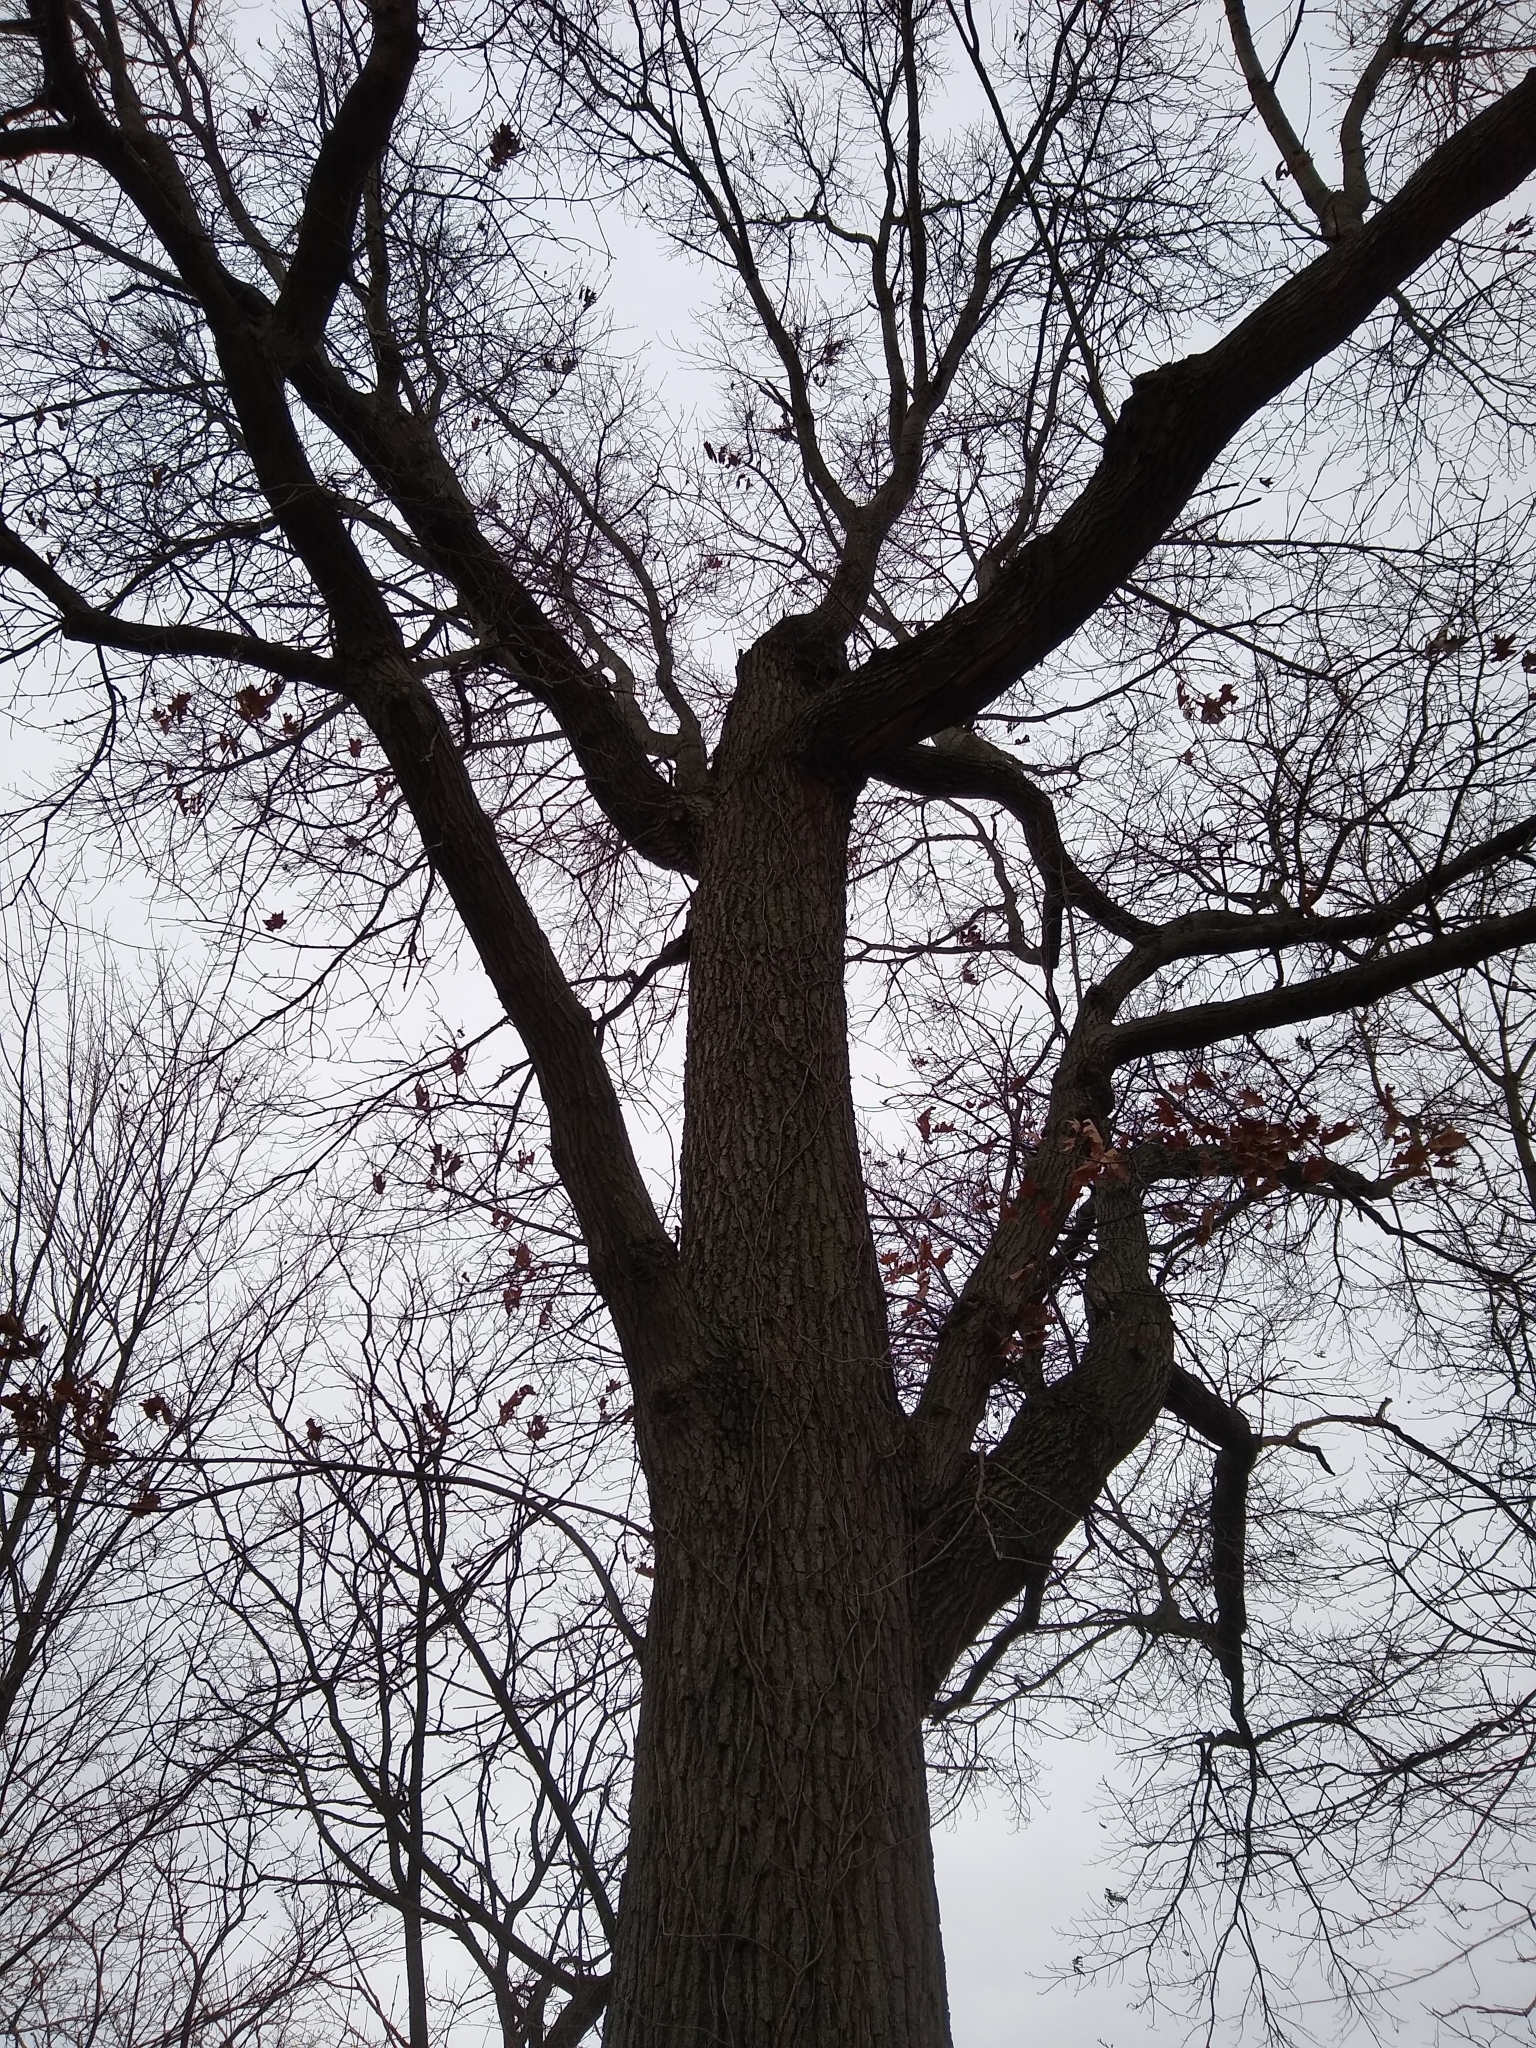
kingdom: Plantae
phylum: Tracheophyta
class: Magnoliopsida
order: Fagales
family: Fagaceae
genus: Quercus
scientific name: Quercus velutina
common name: Black oak
